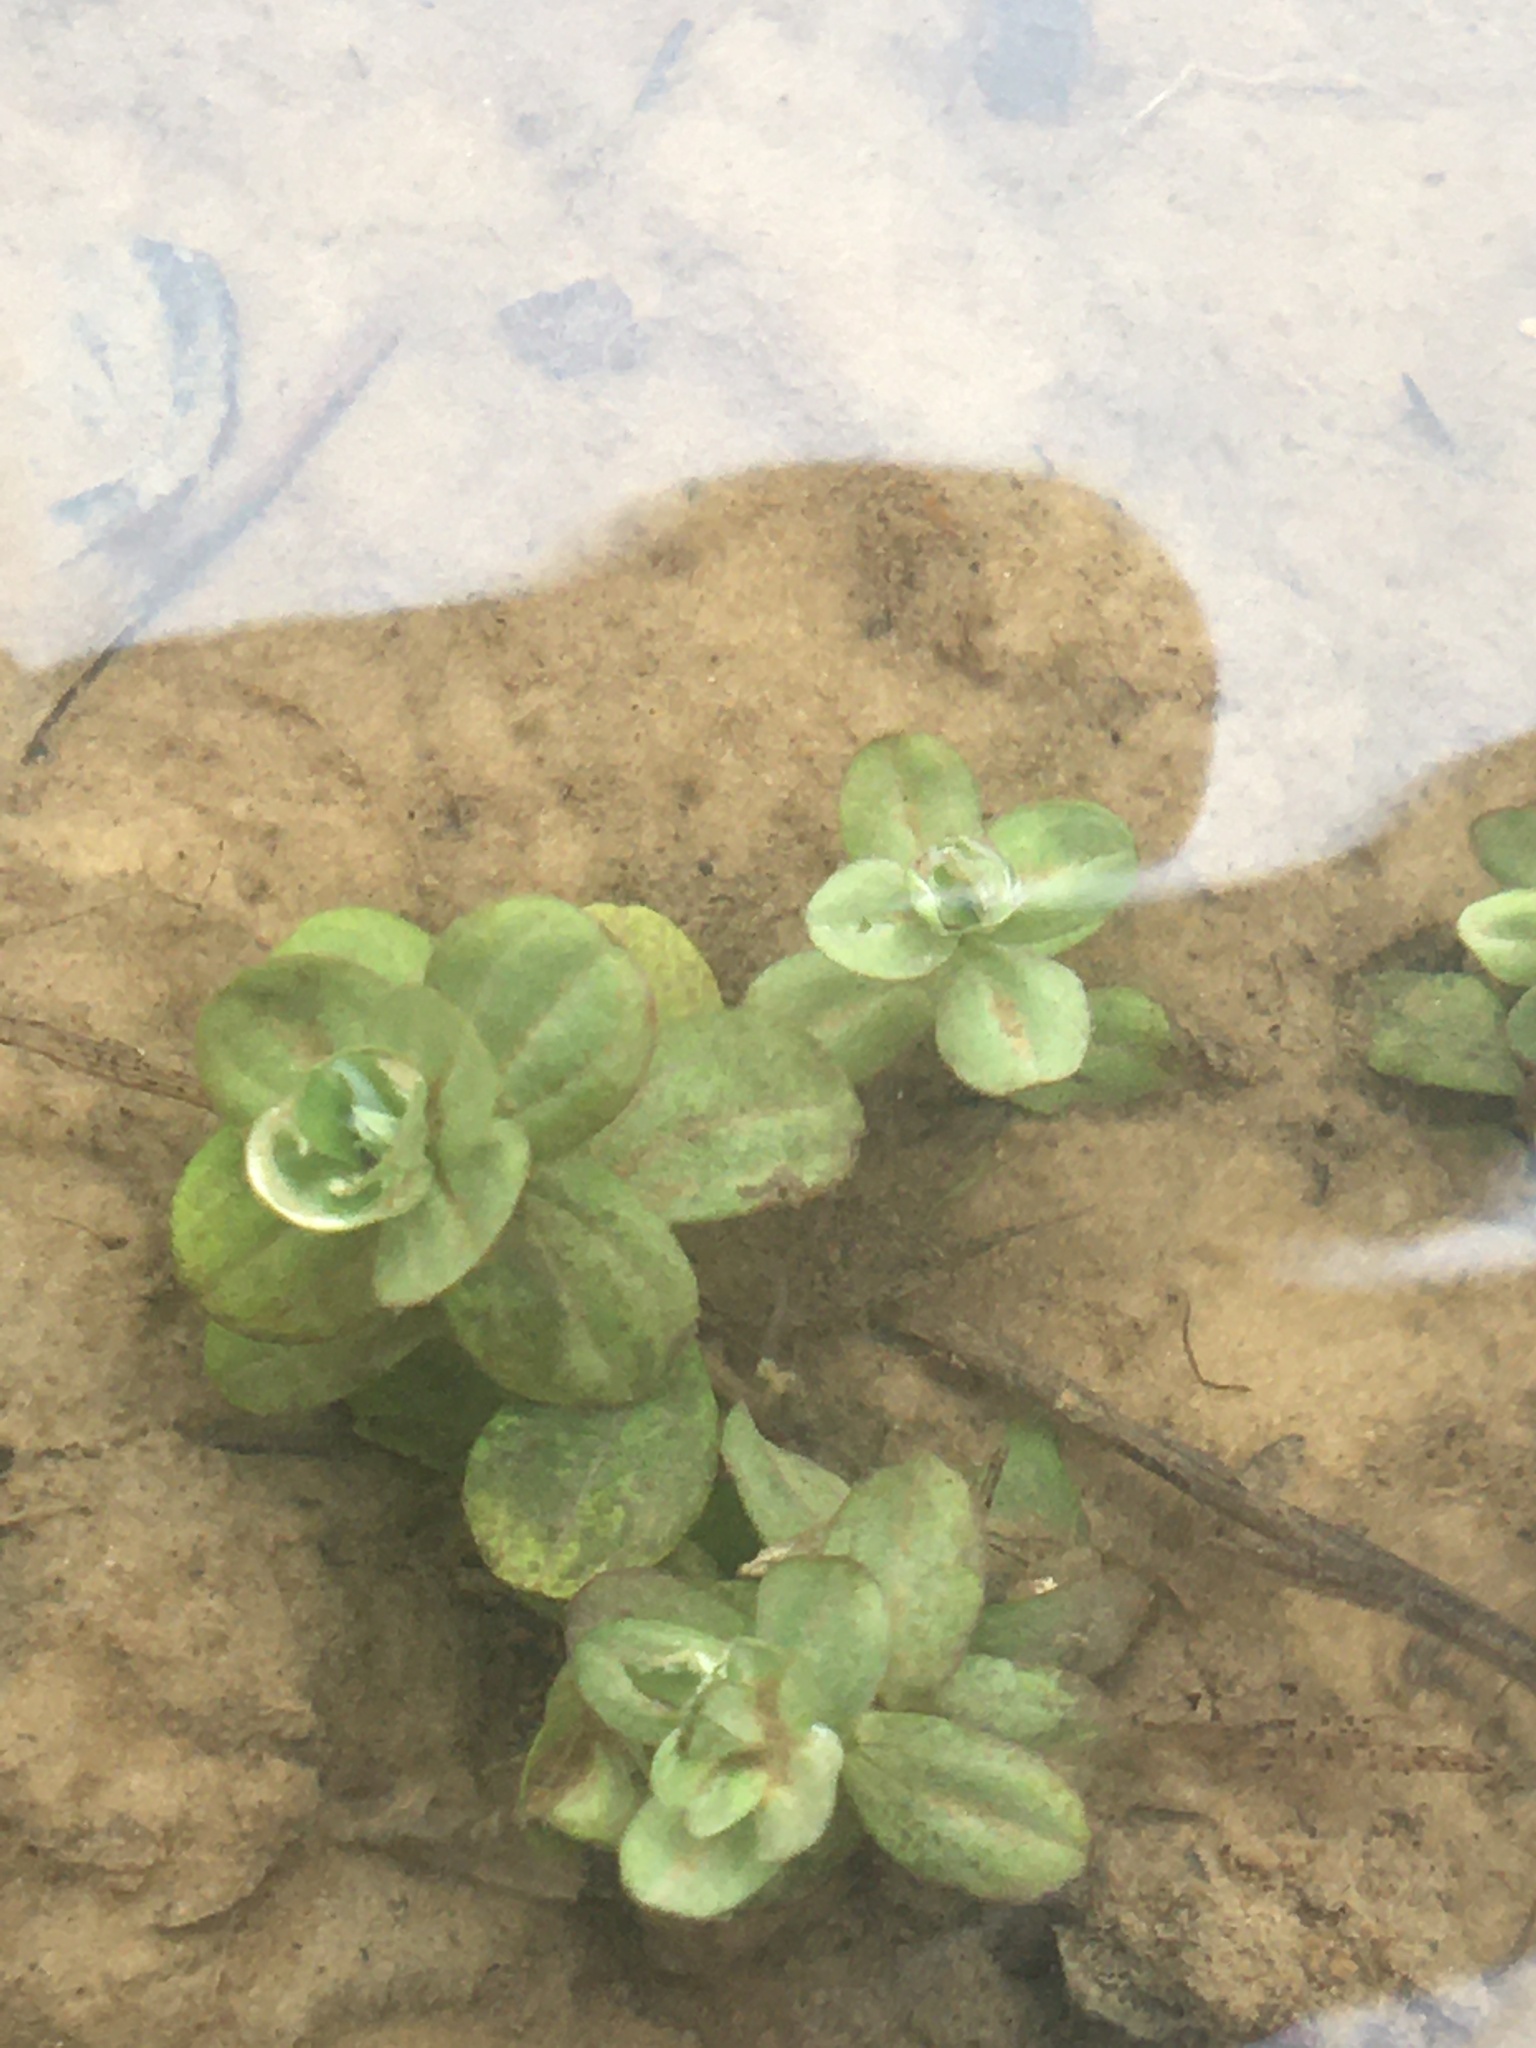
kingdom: Plantae
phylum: Tracheophyta
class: Magnoliopsida
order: Malpighiales
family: Hypericaceae
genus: Hypericum
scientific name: Hypericum mutilum
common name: Dwarf st. john's-wort
